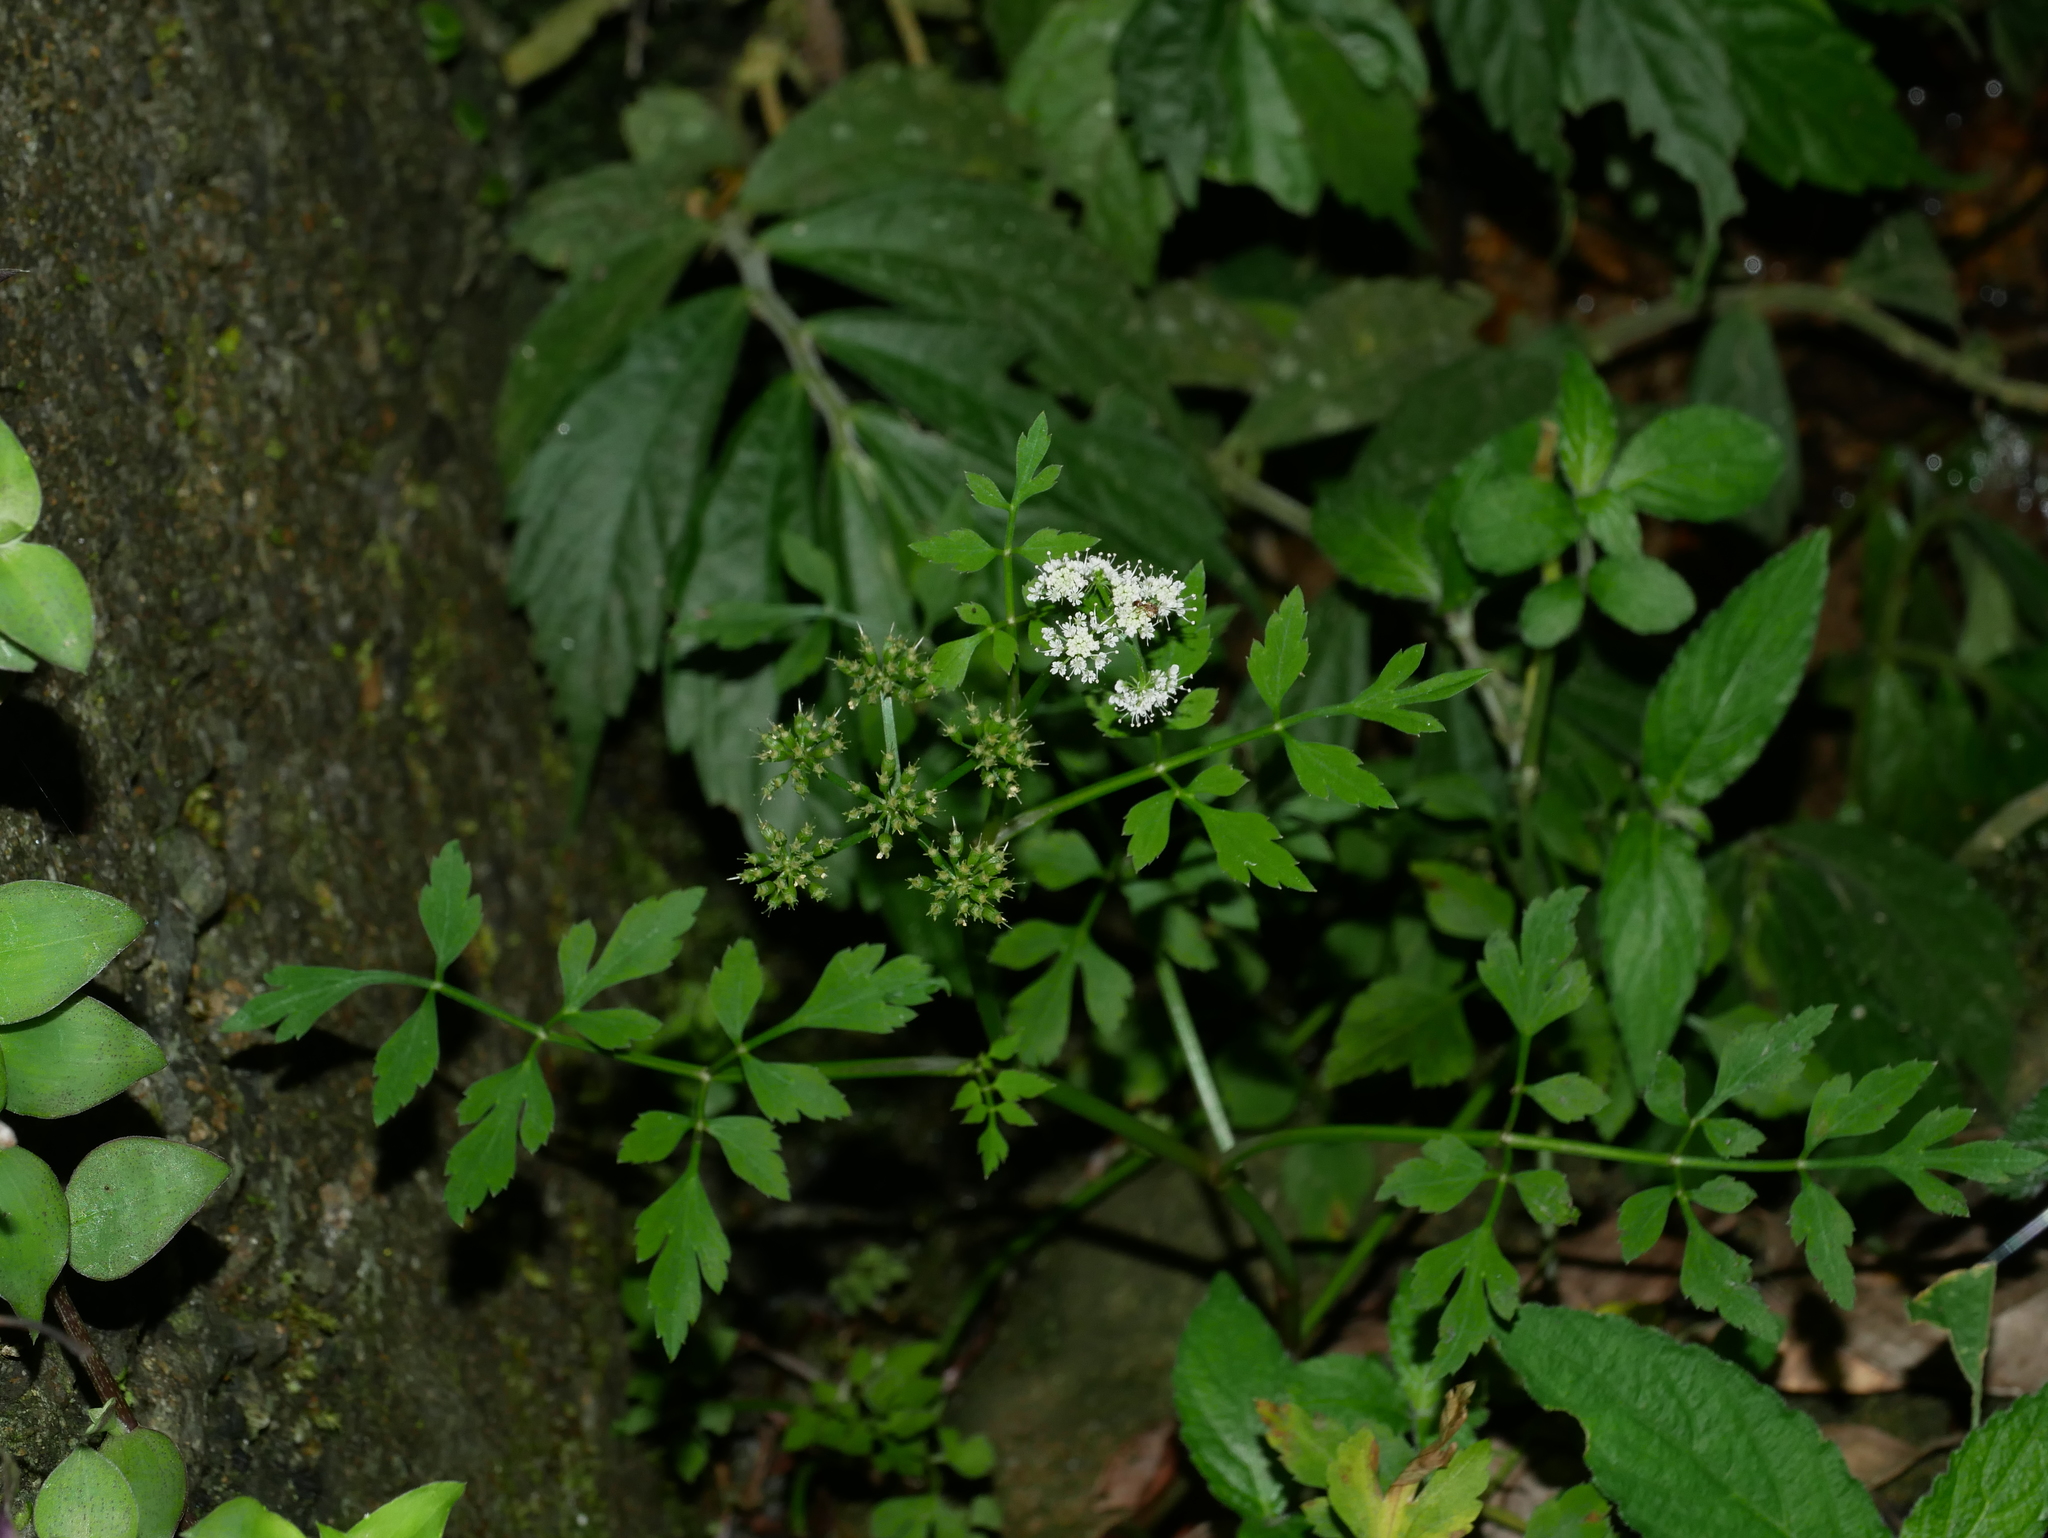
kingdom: Plantae
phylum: Tracheophyta
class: Magnoliopsida
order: Apiales
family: Apiaceae
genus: Oenanthe
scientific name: Oenanthe javanica
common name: Java water-dropwort
